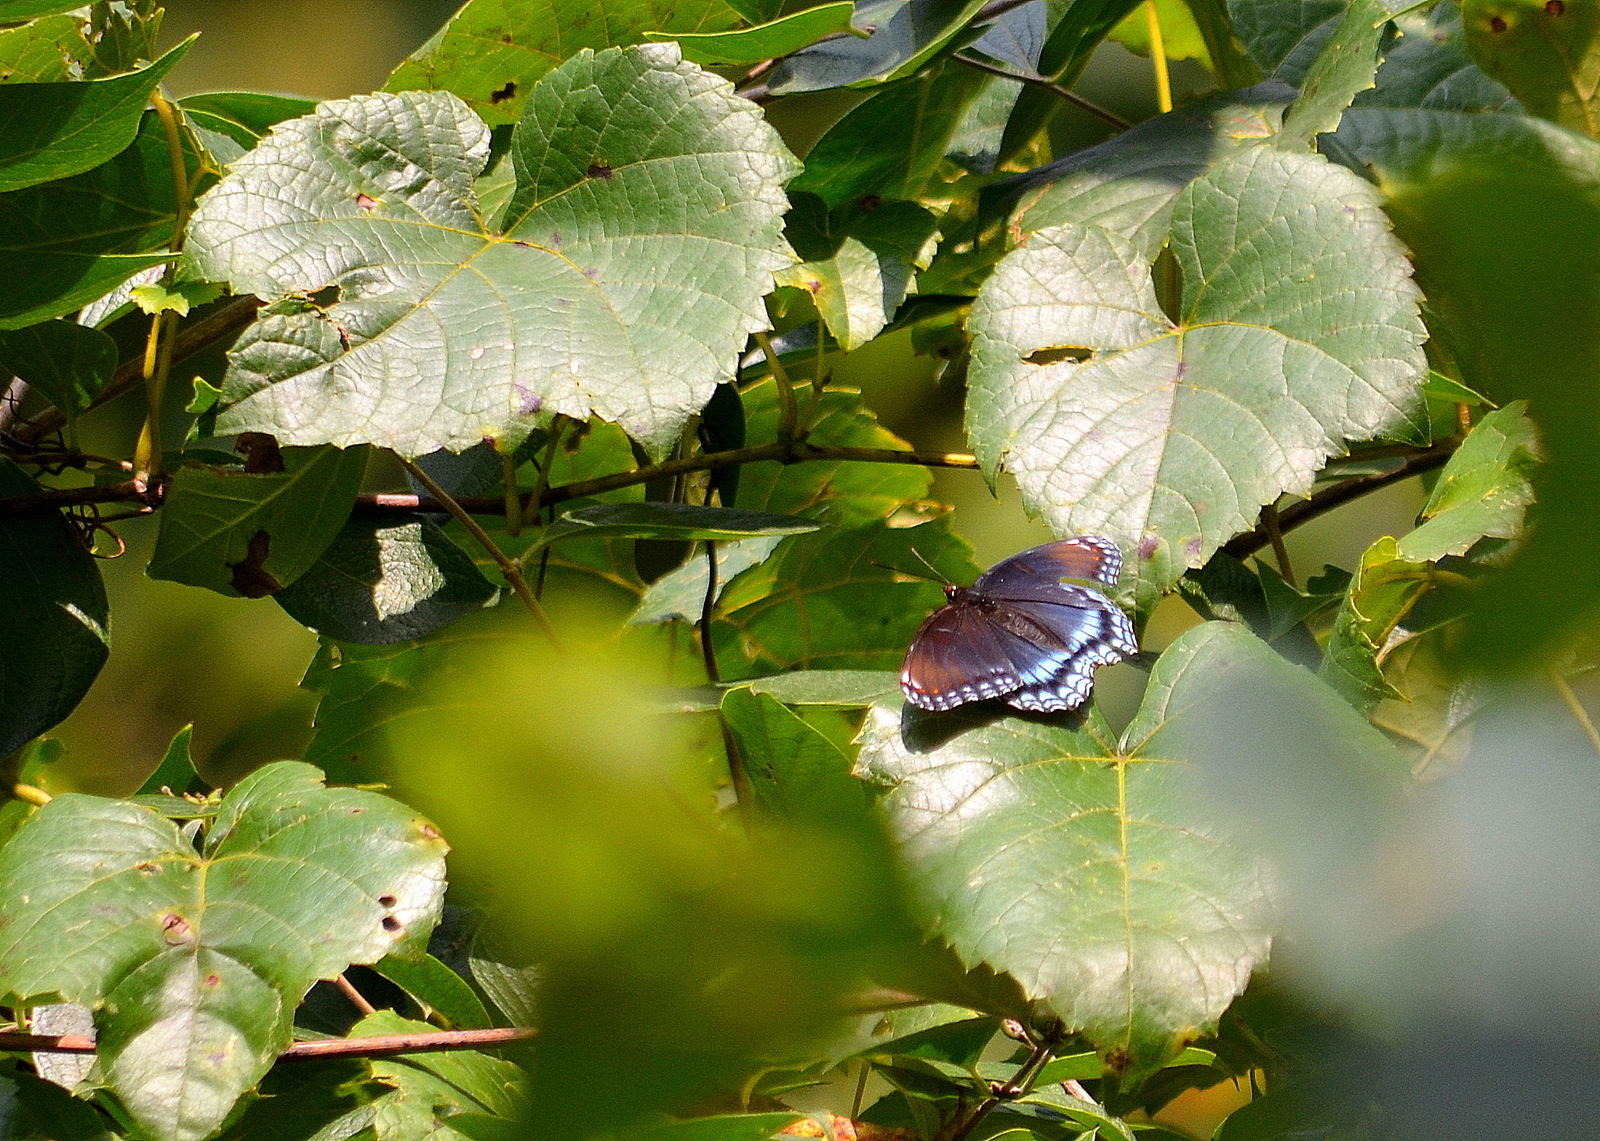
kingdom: Animalia
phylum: Arthropoda
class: Insecta
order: Lepidoptera
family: Nymphalidae
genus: Limenitis
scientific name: Limenitis arthemis
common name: Red-spotted admiral
